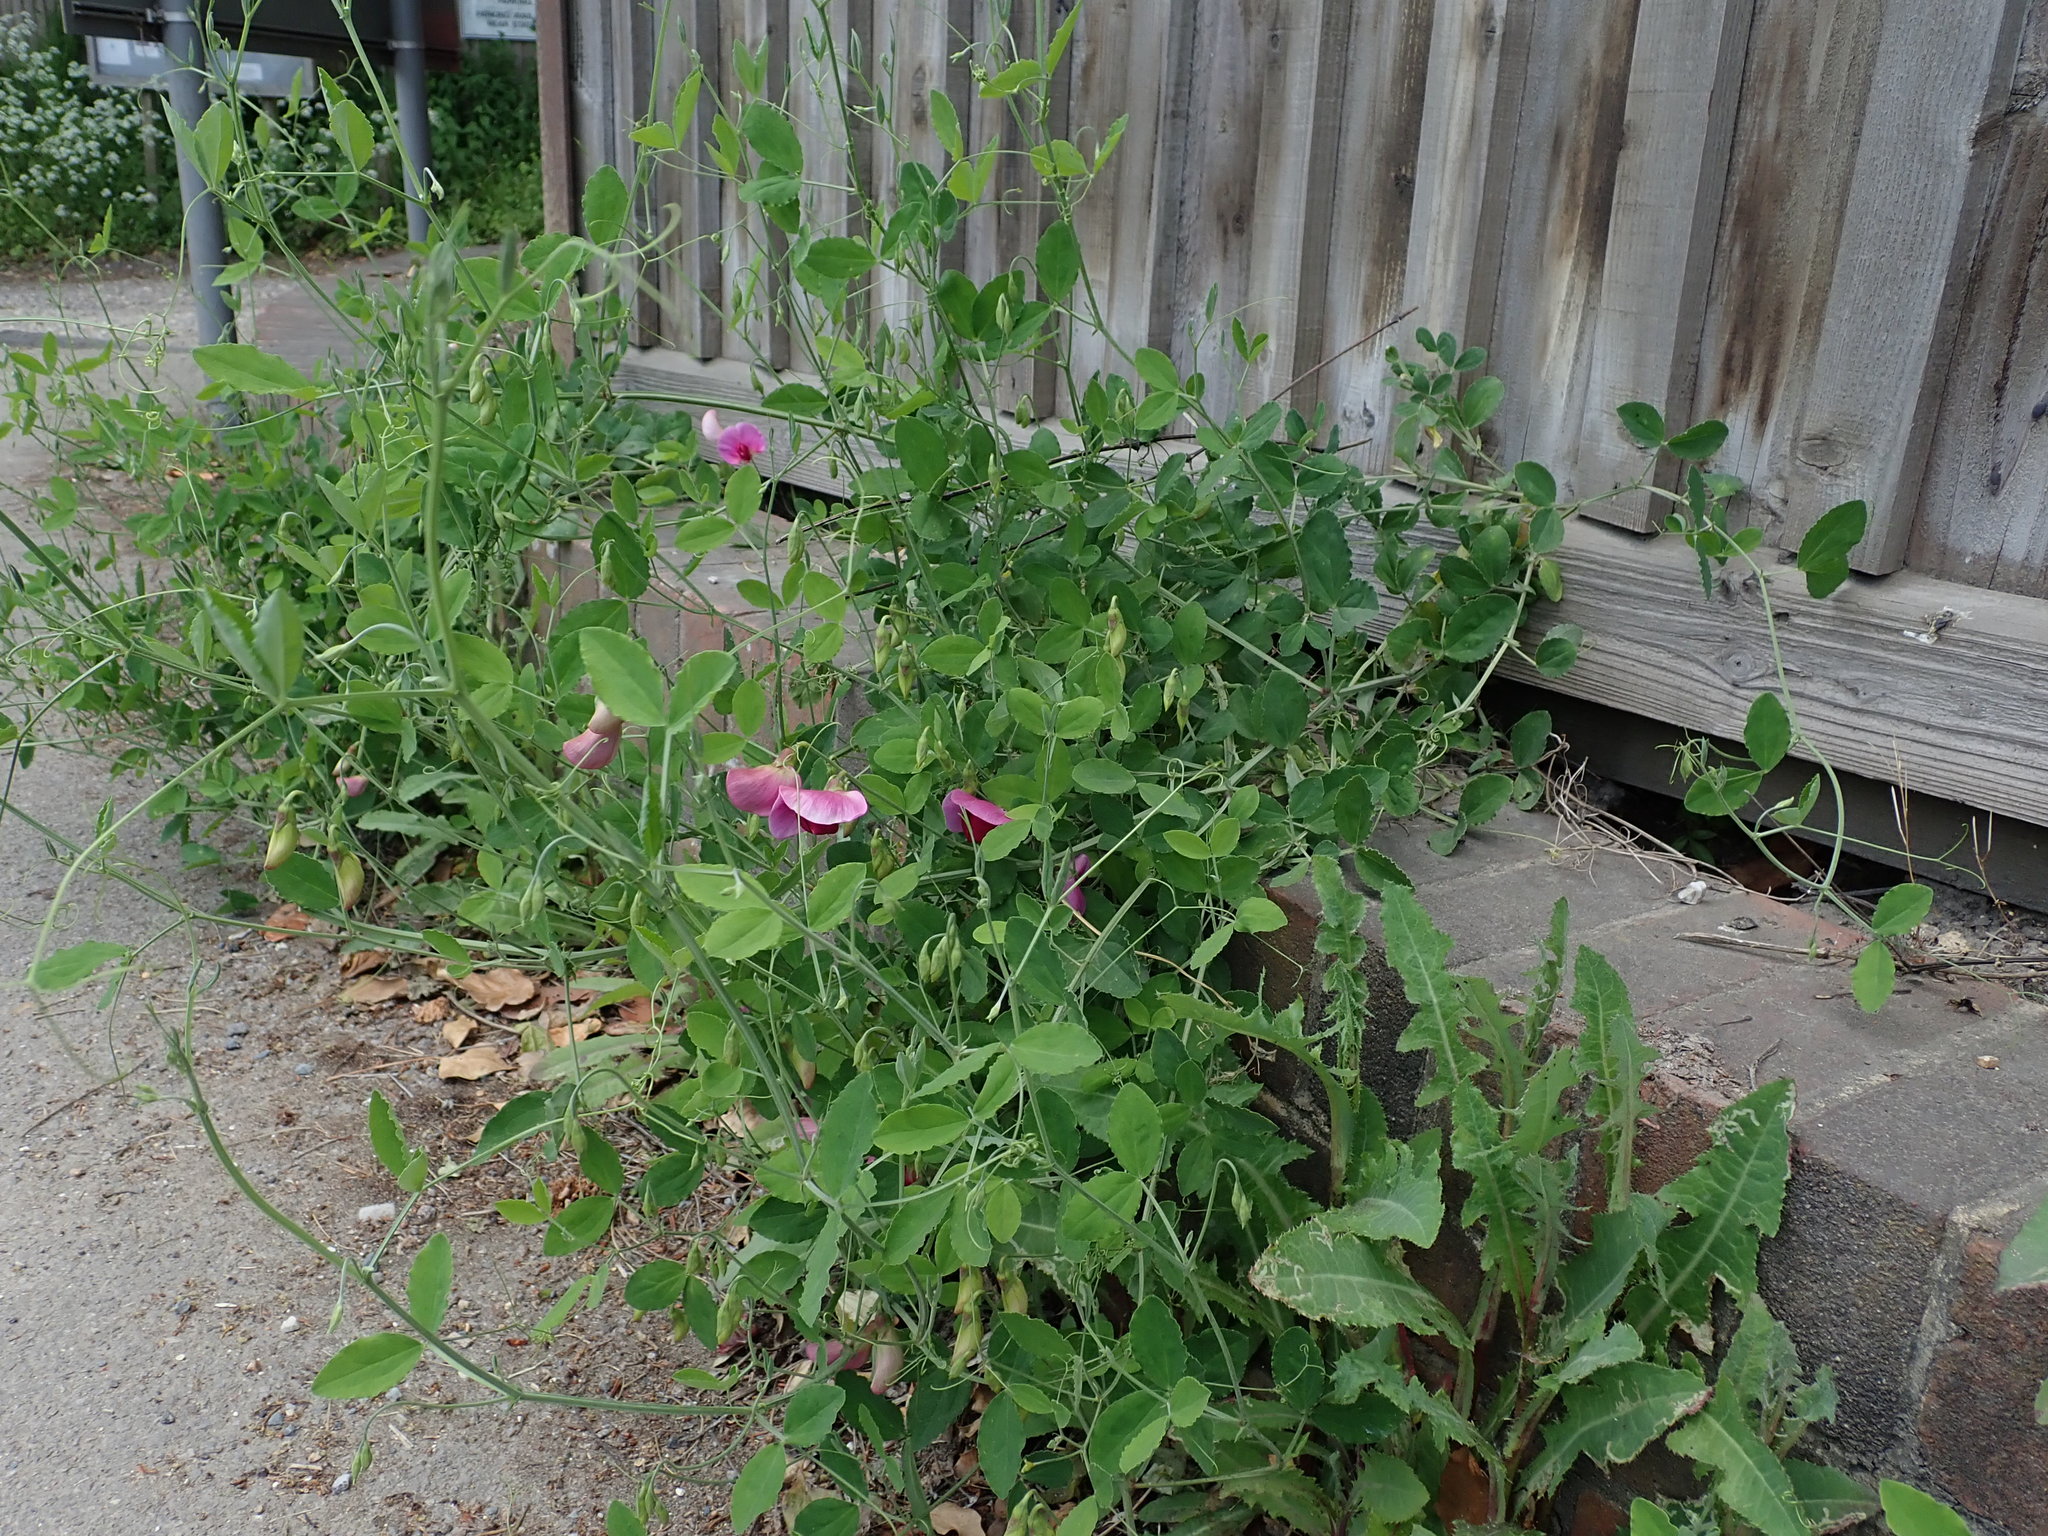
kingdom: Plantae
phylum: Tracheophyta
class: Magnoliopsida
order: Fabales
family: Fabaceae
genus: Lathyrus
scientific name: Lathyrus grandiflorus
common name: Two-flowered everlasting-pea
